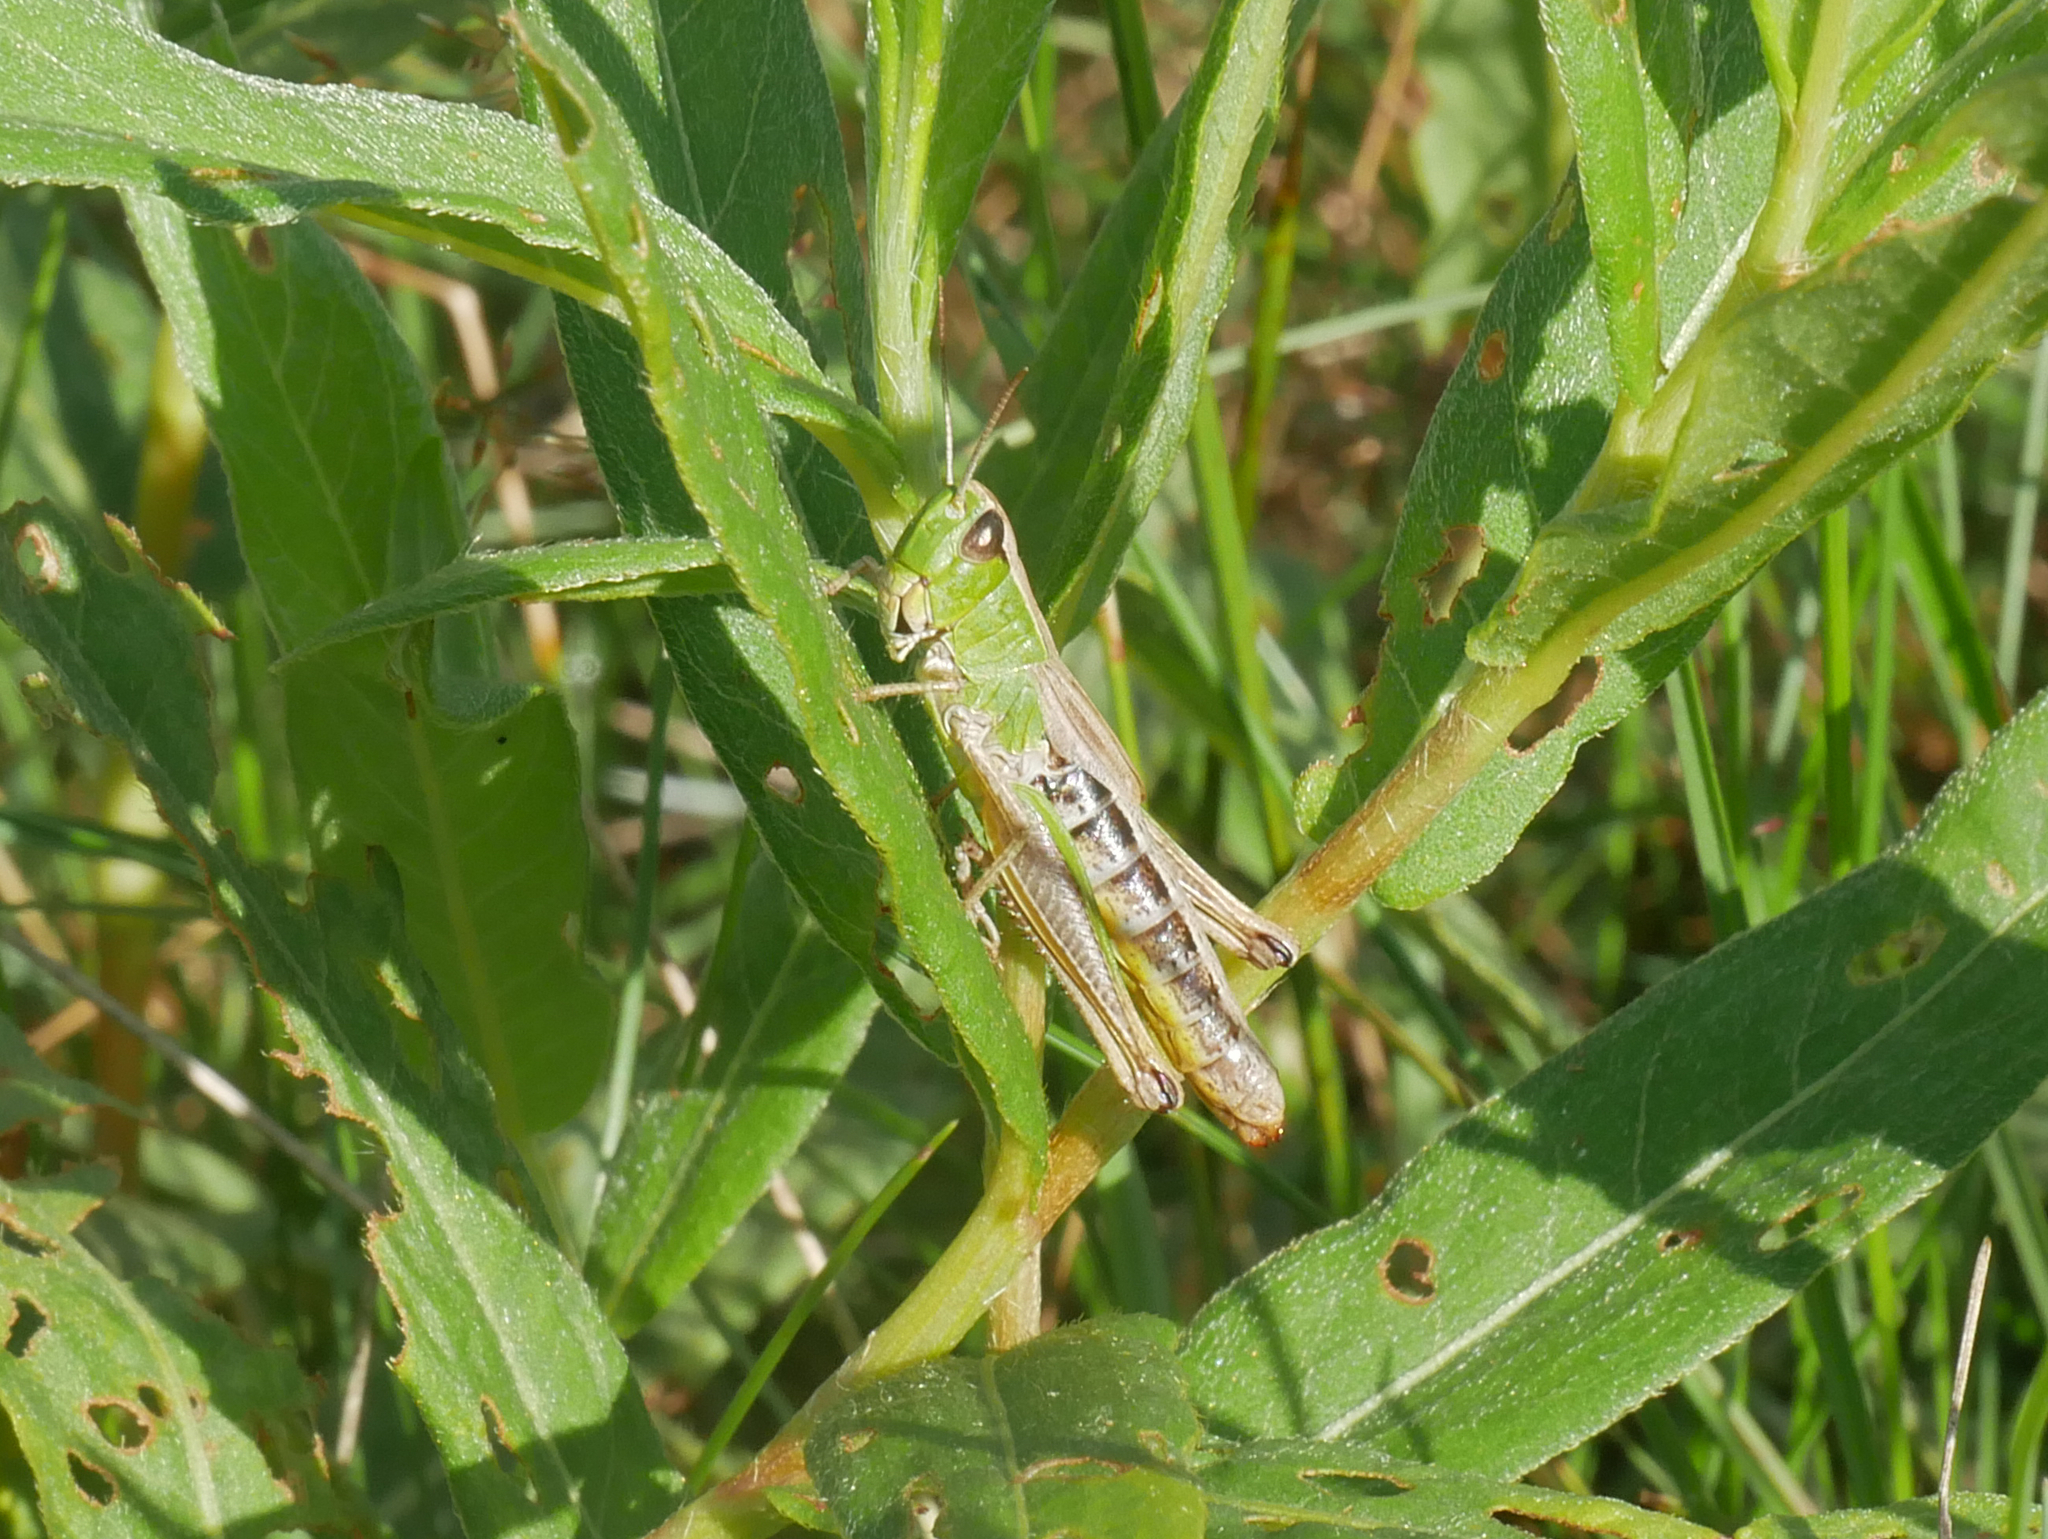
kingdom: Animalia
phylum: Arthropoda
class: Insecta
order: Orthoptera
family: Acrididae
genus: Pseudochorthippus
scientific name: Pseudochorthippus parallelus
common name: Meadow grasshopper
